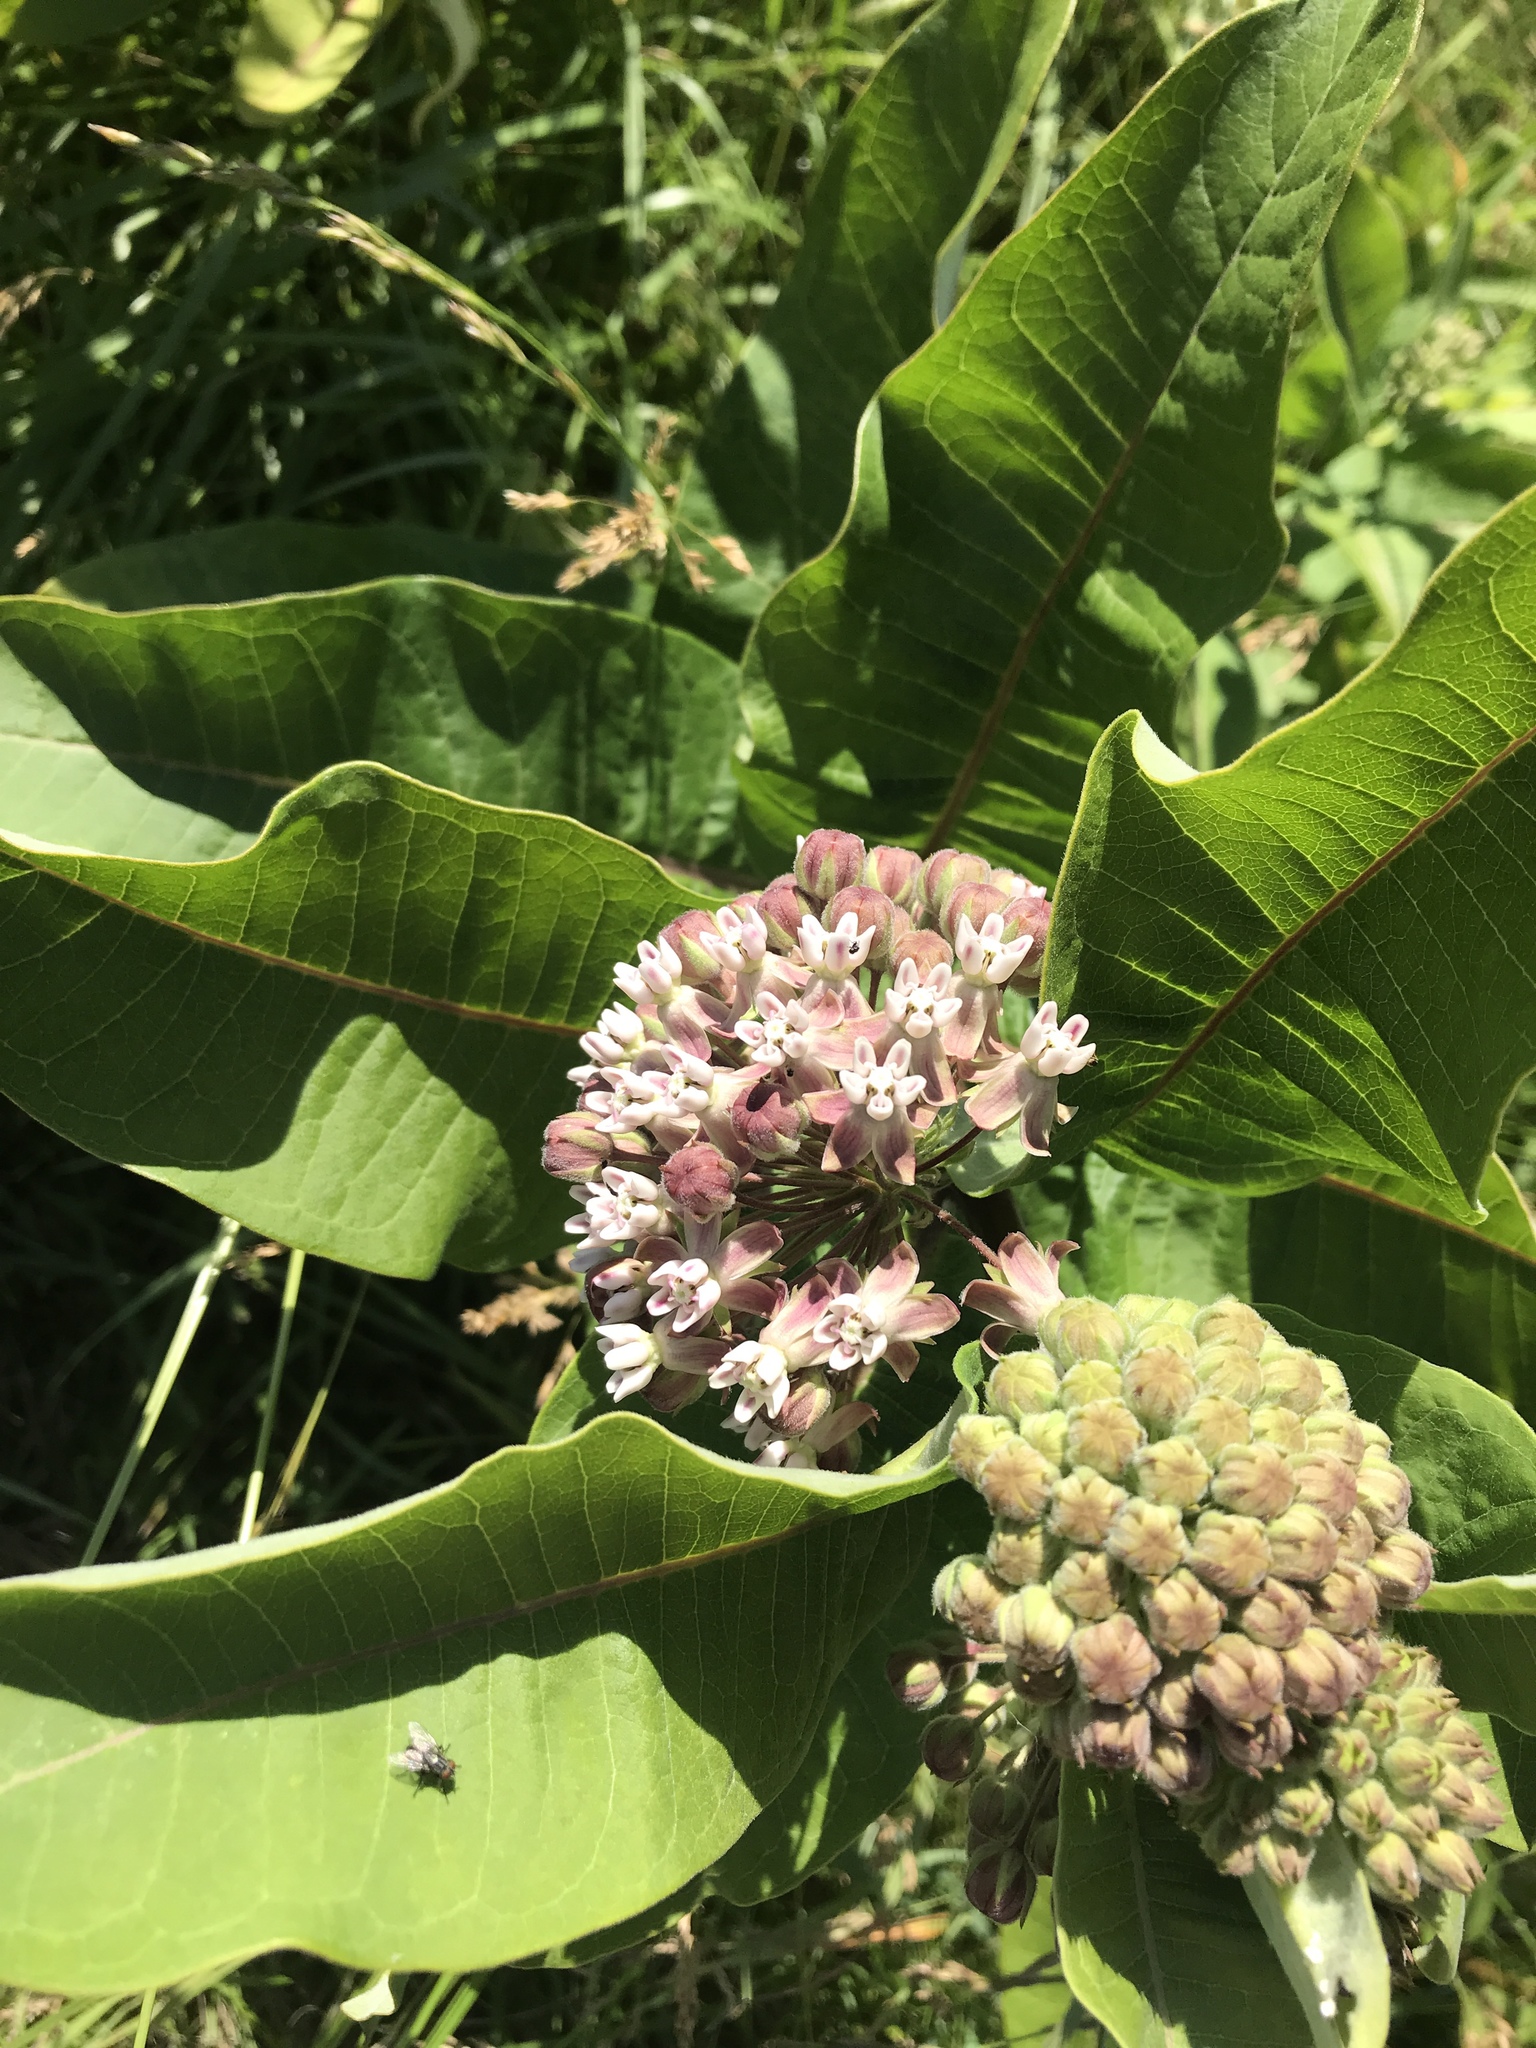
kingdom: Plantae
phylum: Tracheophyta
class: Magnoliopsida
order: Gentianales
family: Apocynaceae
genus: Asclepias
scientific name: Asclepias syriaca
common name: Common milkweed
